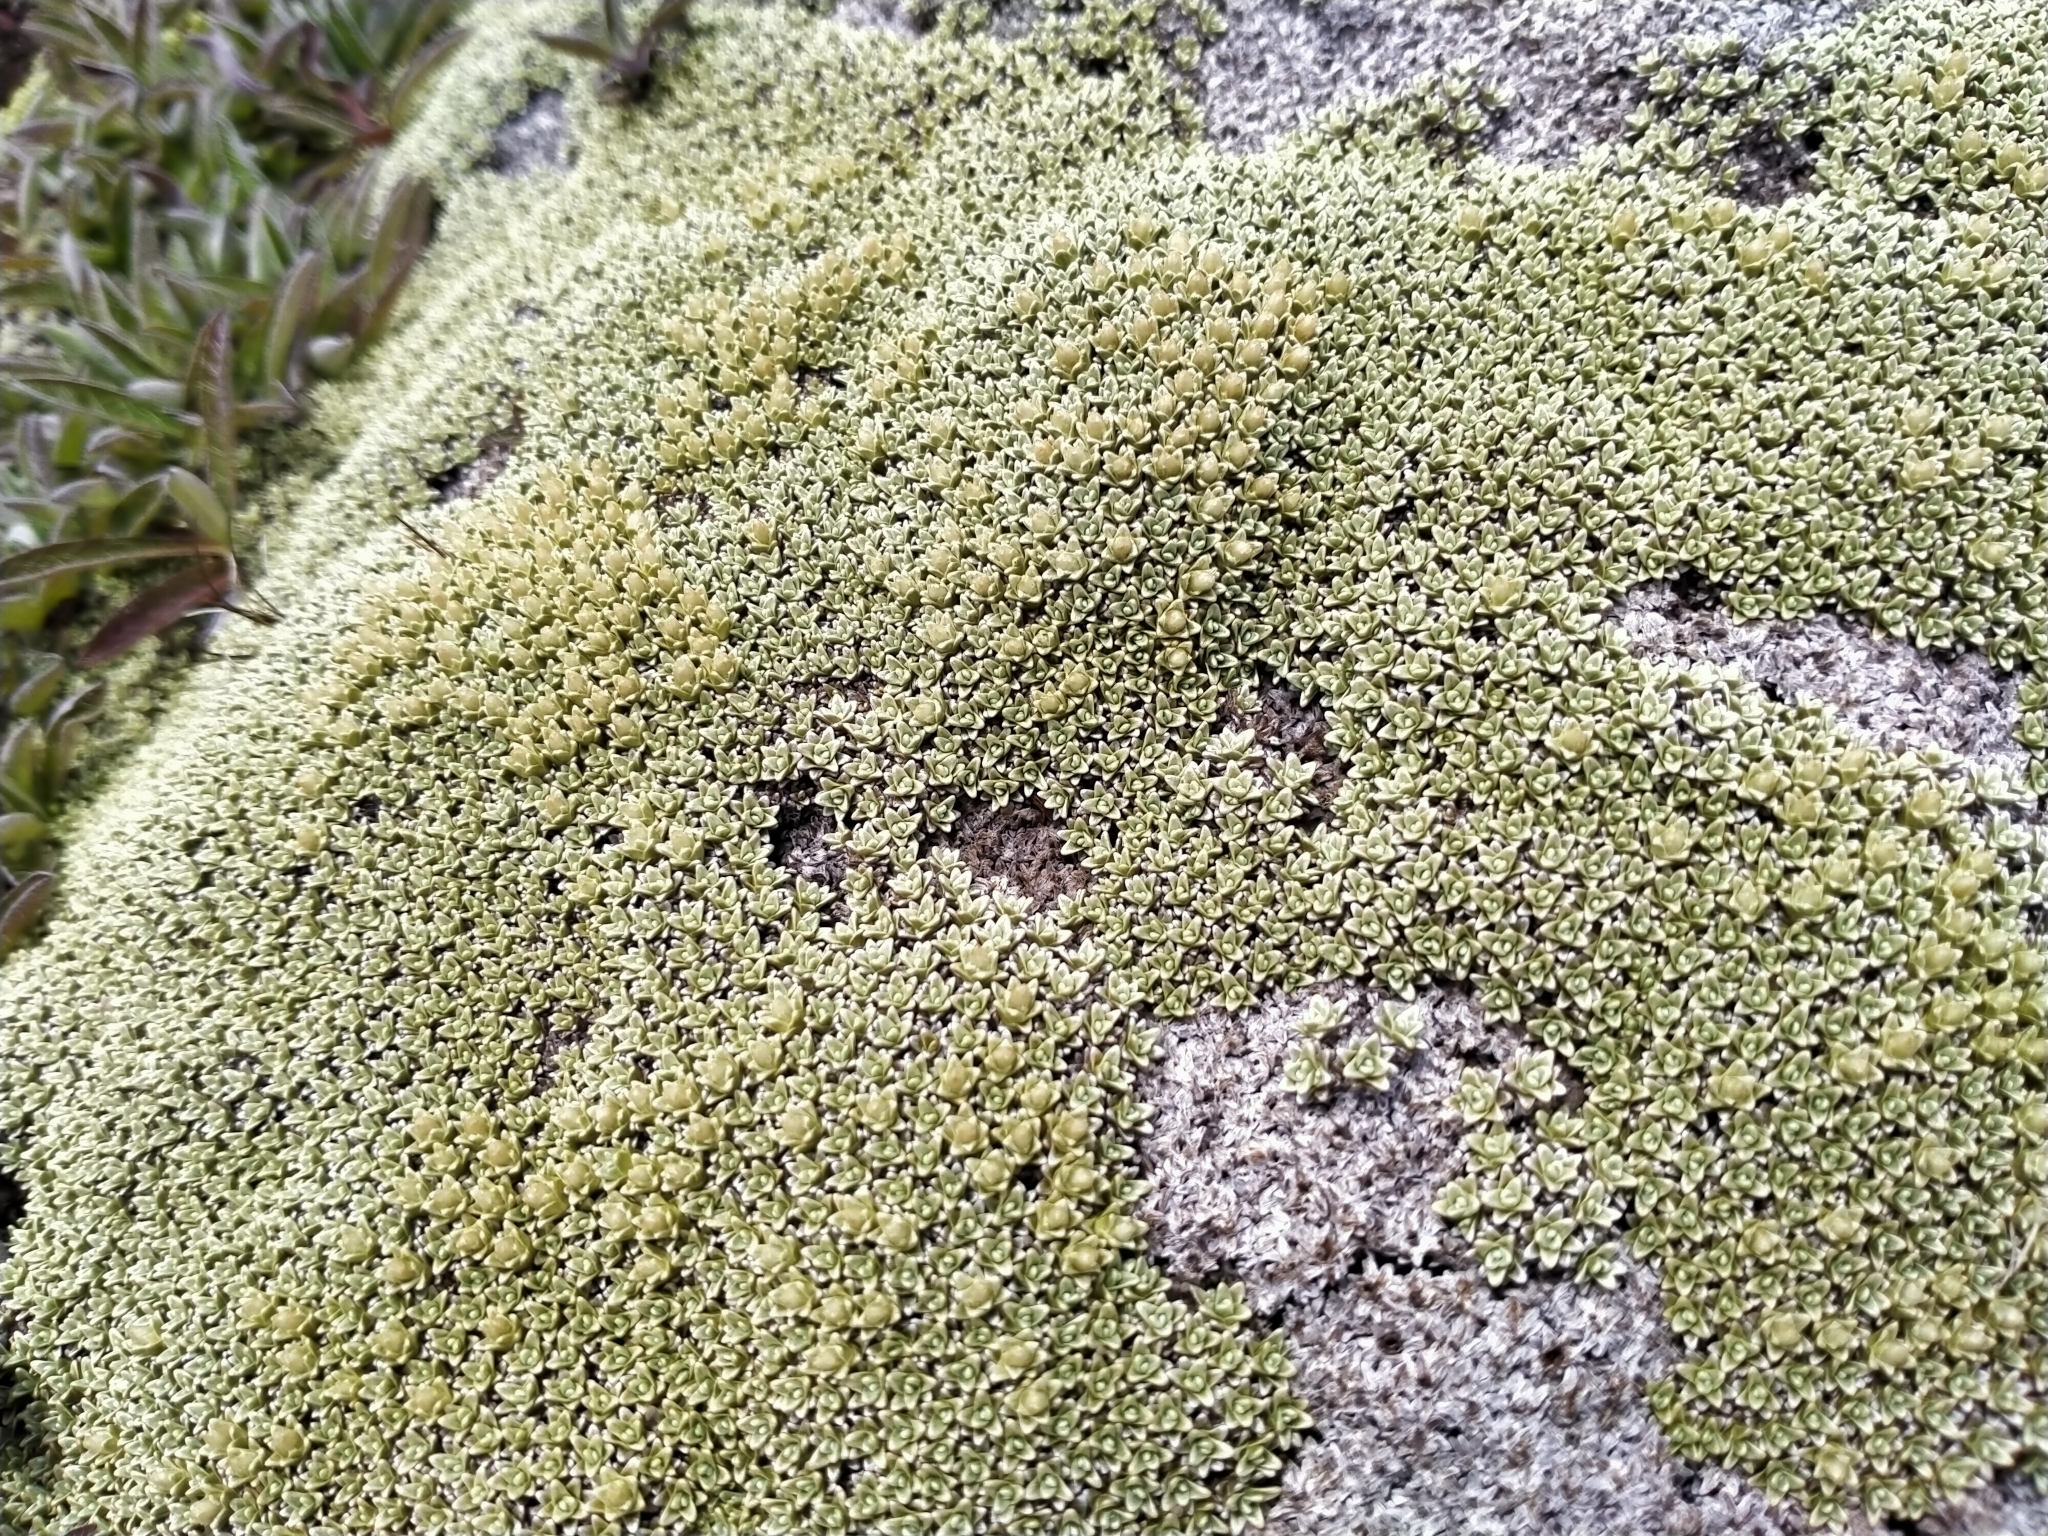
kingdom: Plantae
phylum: Tracheophyta
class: Magnoliopsida
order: Asterales
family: Asteraceae
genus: Raoulia
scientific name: Raoulia hectorii
